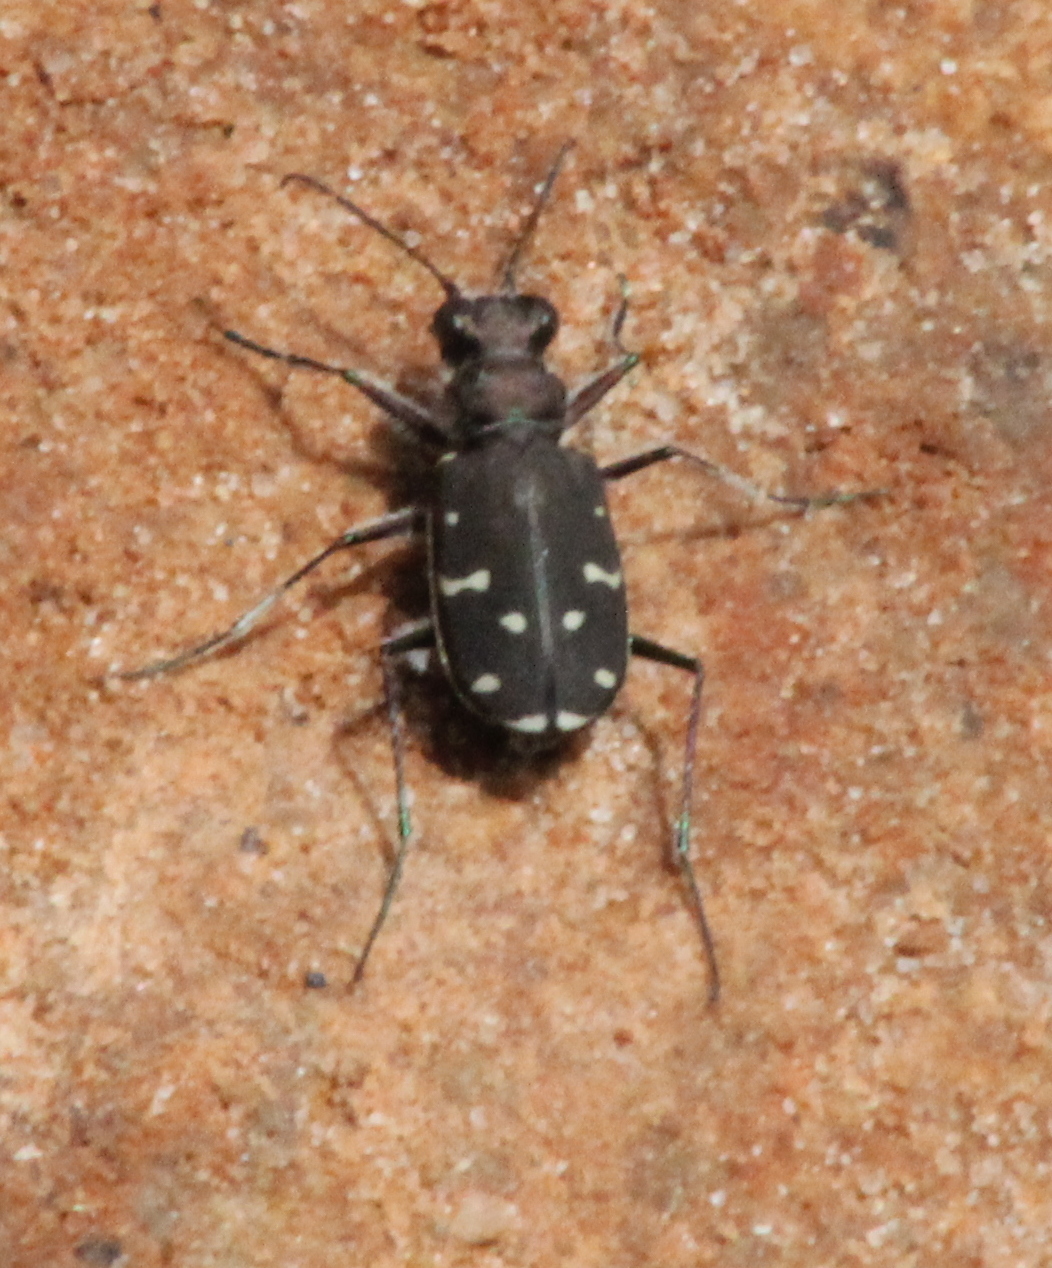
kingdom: Animalia
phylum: Arthropoda
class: Insecta
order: Coleoptera
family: Carabidae
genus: Cicindela
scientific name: Cicindela duodecimguttata
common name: Twelve-spotted tiger beetle
